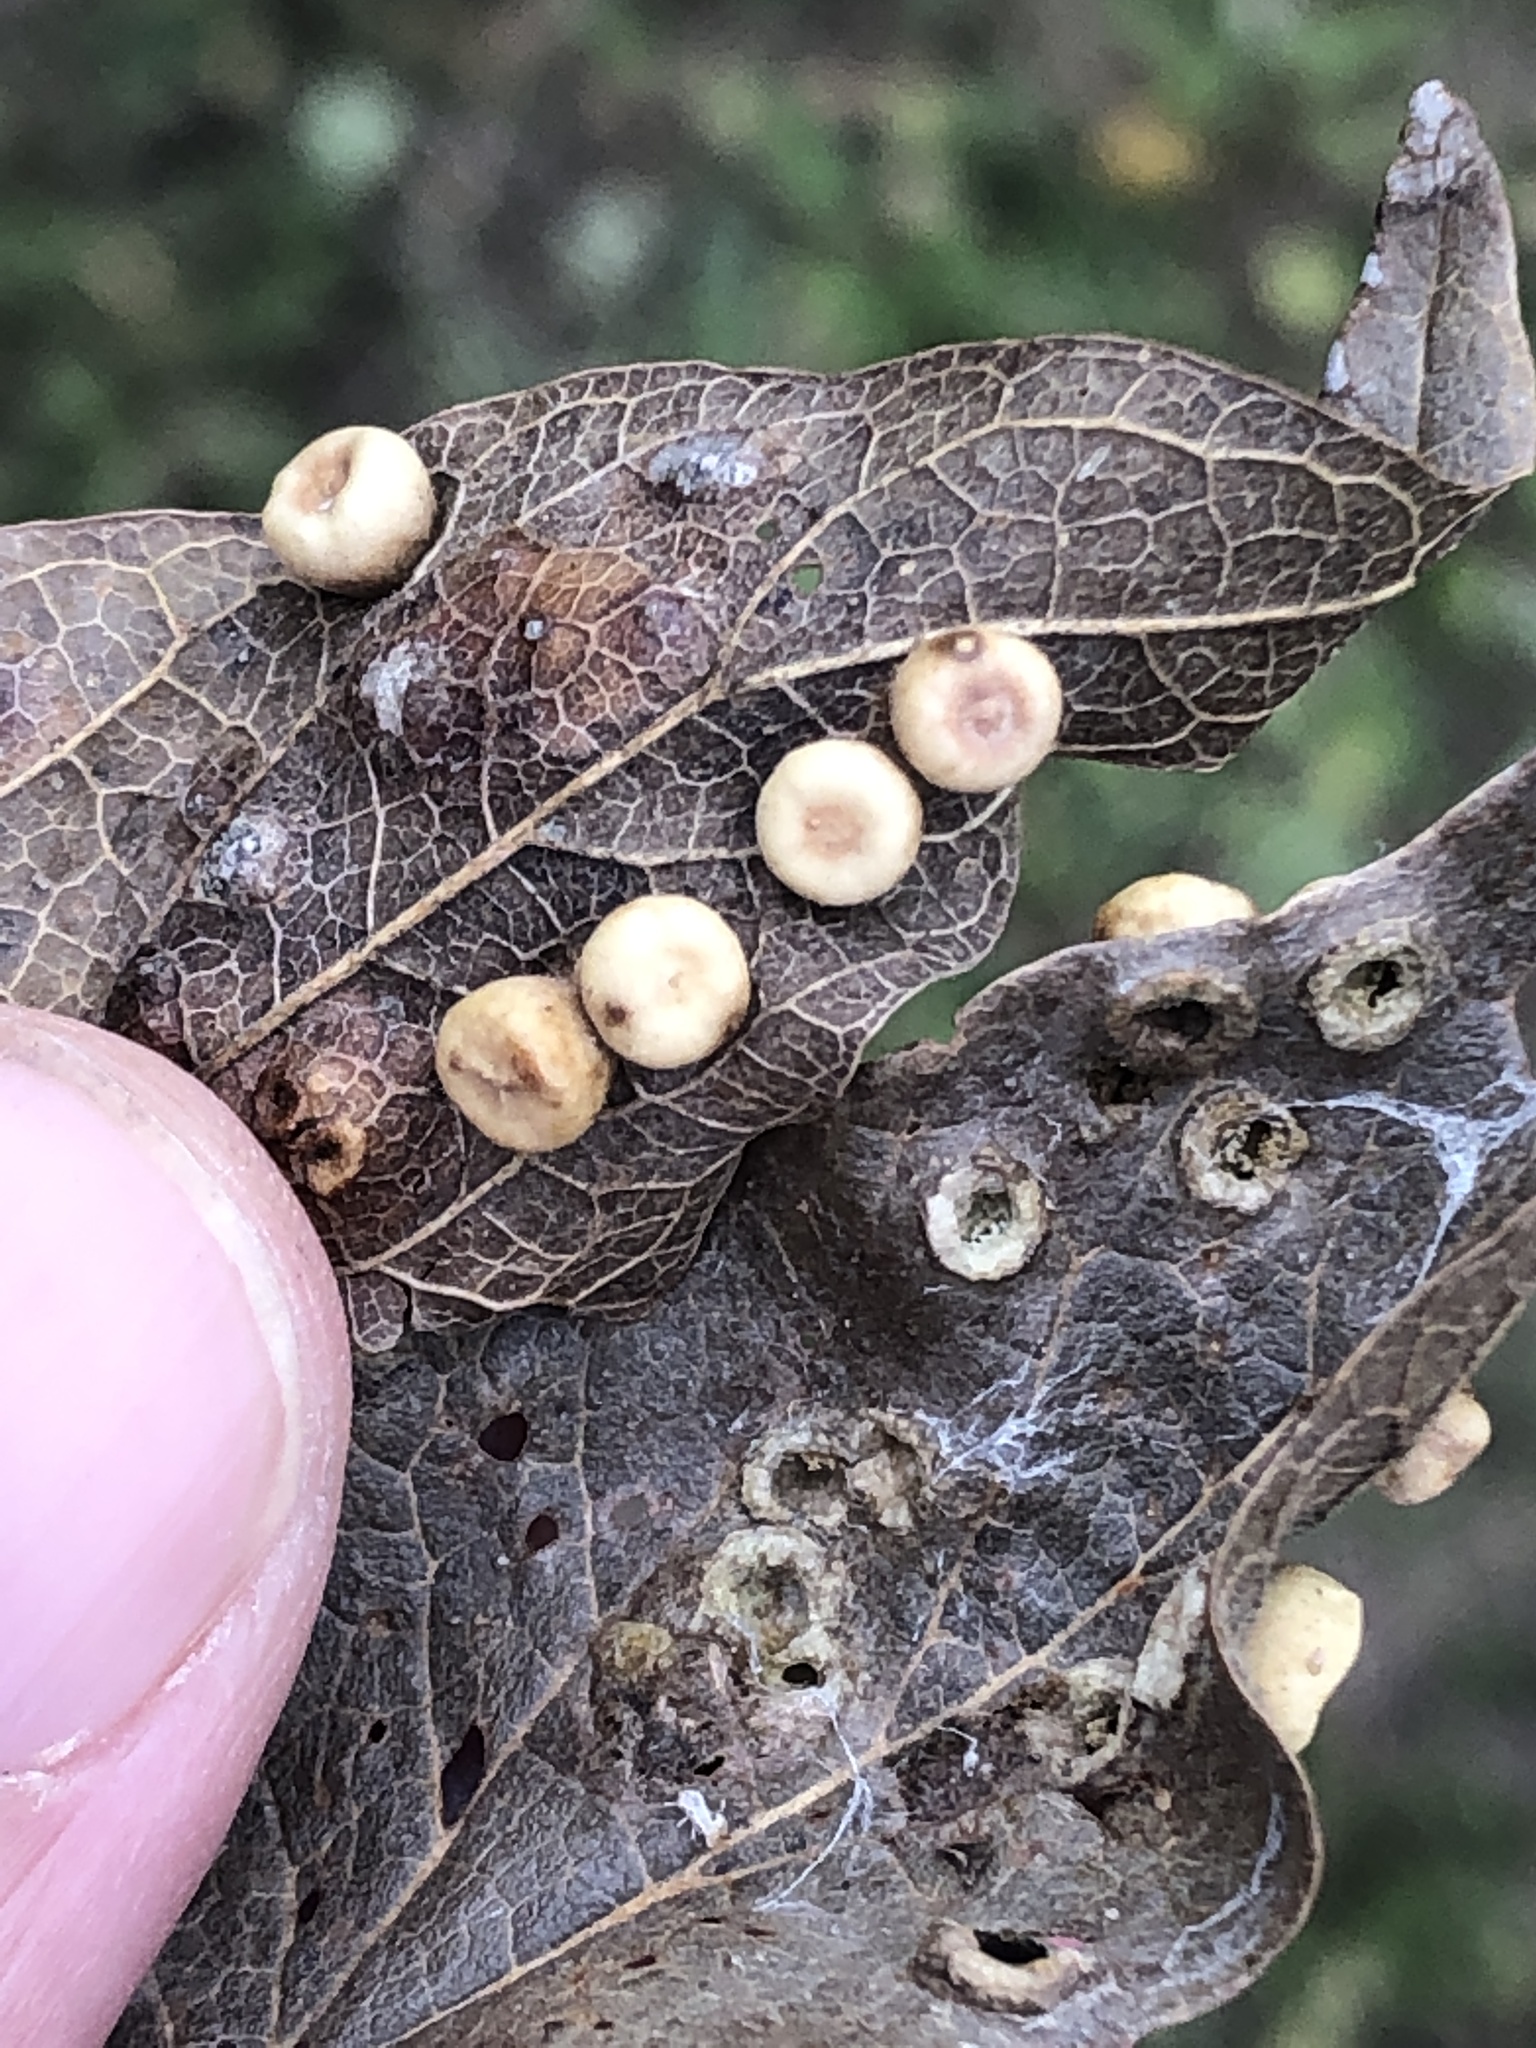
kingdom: Animalia
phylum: Arthropoda
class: Insecta
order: Hemiptera
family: Aphalaridae
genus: Pachypsylla
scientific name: Pachypsylla celtidismamma
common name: Hackberry nipplegall psyllid
